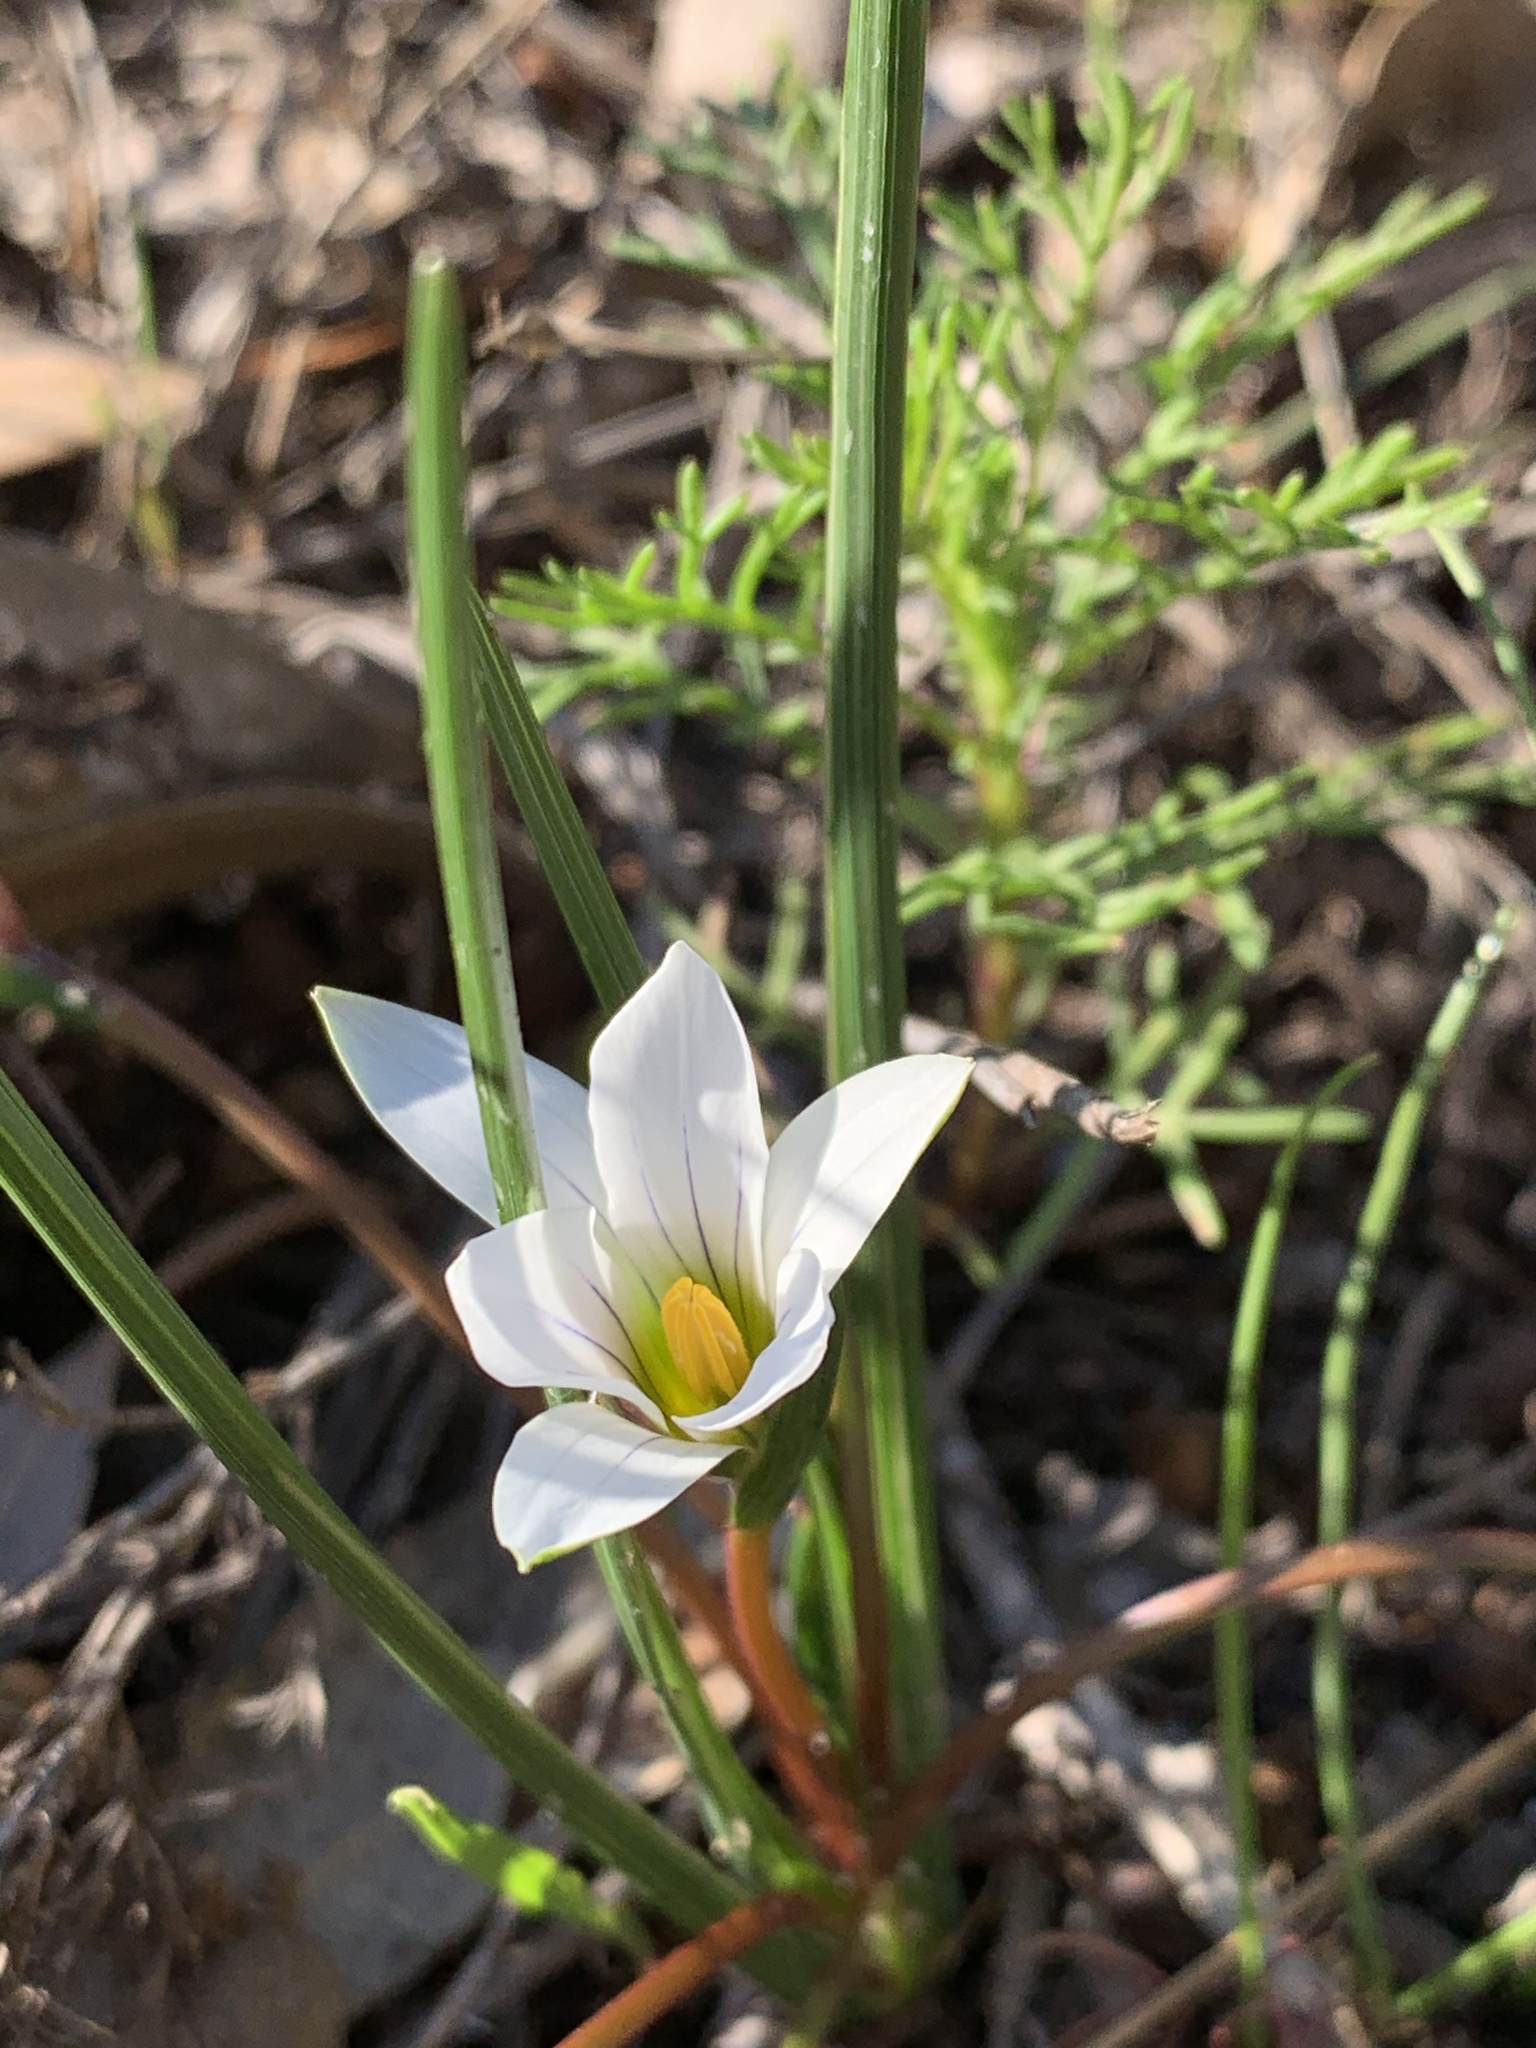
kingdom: Plantae
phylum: Tracheophyta
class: Liliopsida
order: Asparagales
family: Iridaceae
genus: Romulea
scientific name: Romulea flava
